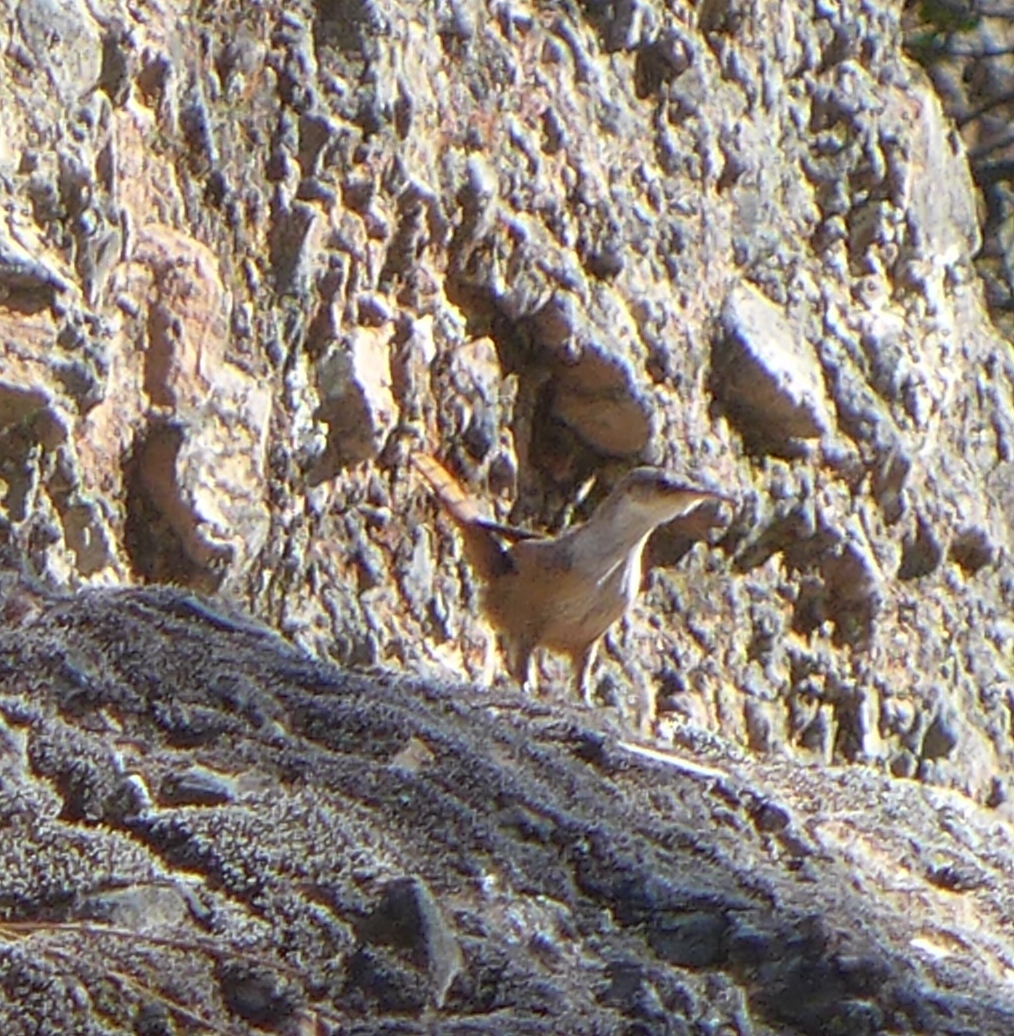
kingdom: Animalia
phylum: Chordata
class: Aves
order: Passeriformes
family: Troglodytidae
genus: Catherpes
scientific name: Catherpes mexicanus
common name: Canyon wren
